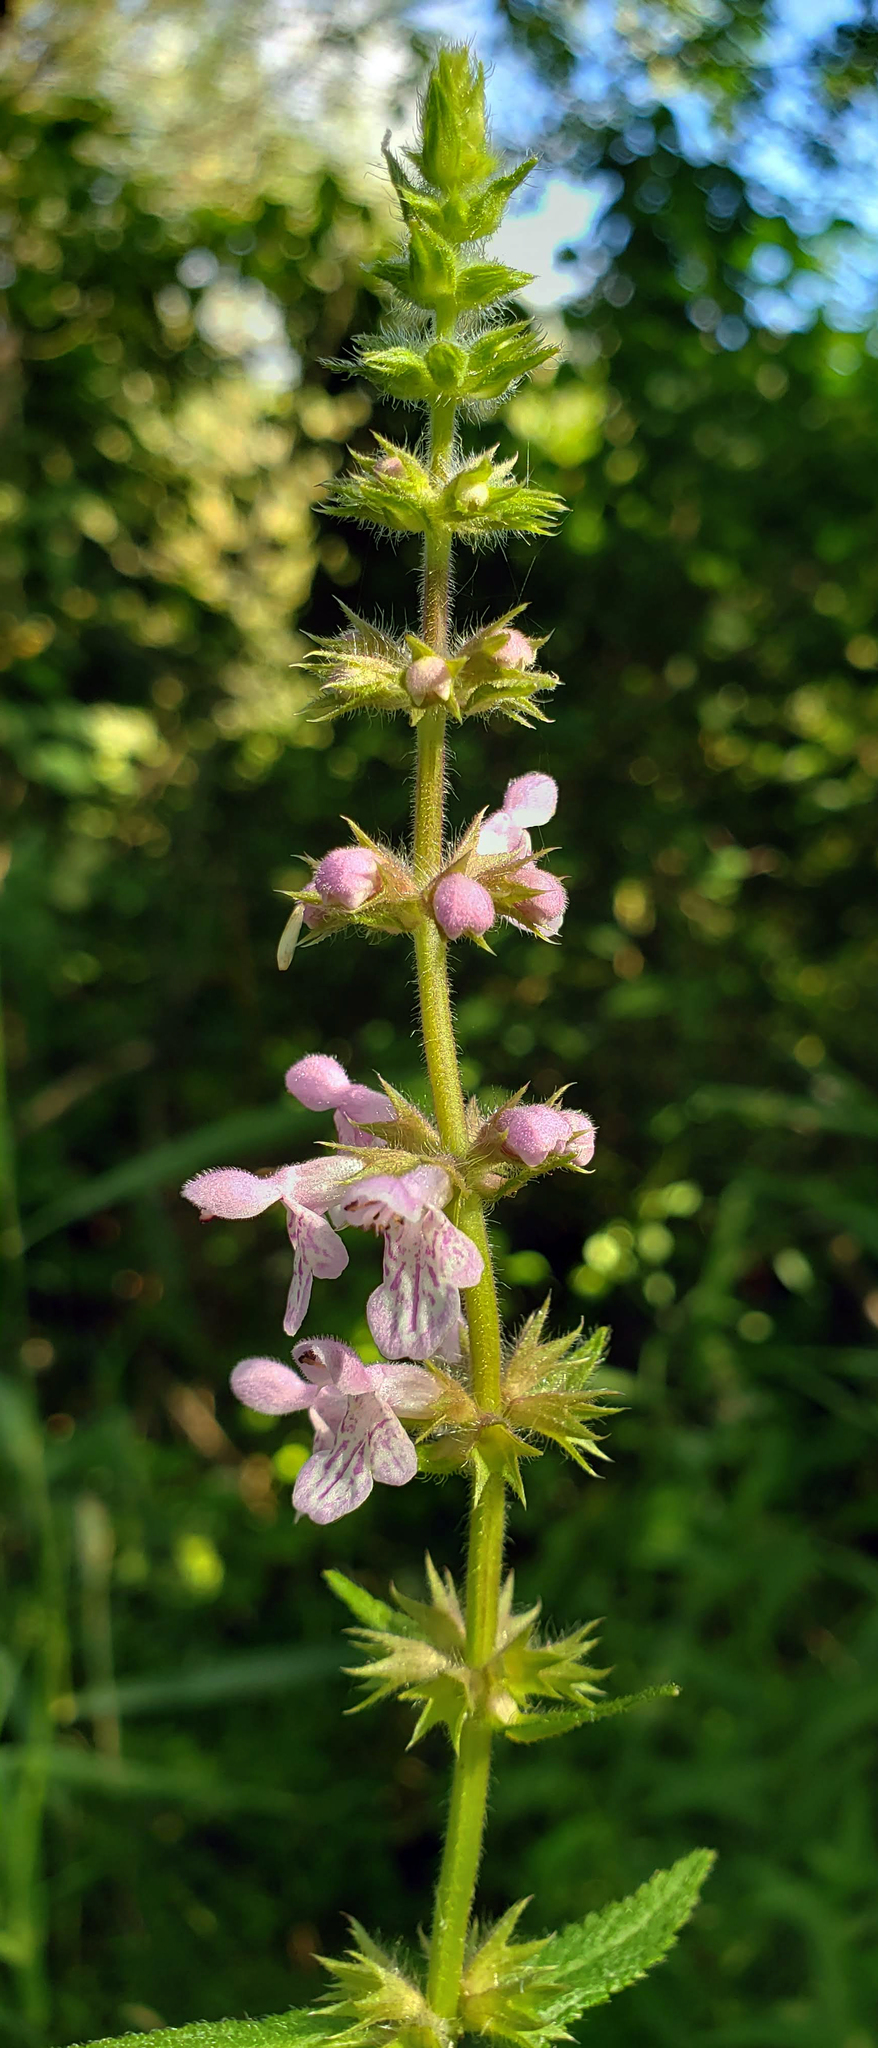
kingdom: Plantae
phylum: Tracheophyta
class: Magnoliopsida
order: Lamiales
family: Lamiaceae
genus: Stachys
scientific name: Stachys hispida
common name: Hispid hedge-nettle
